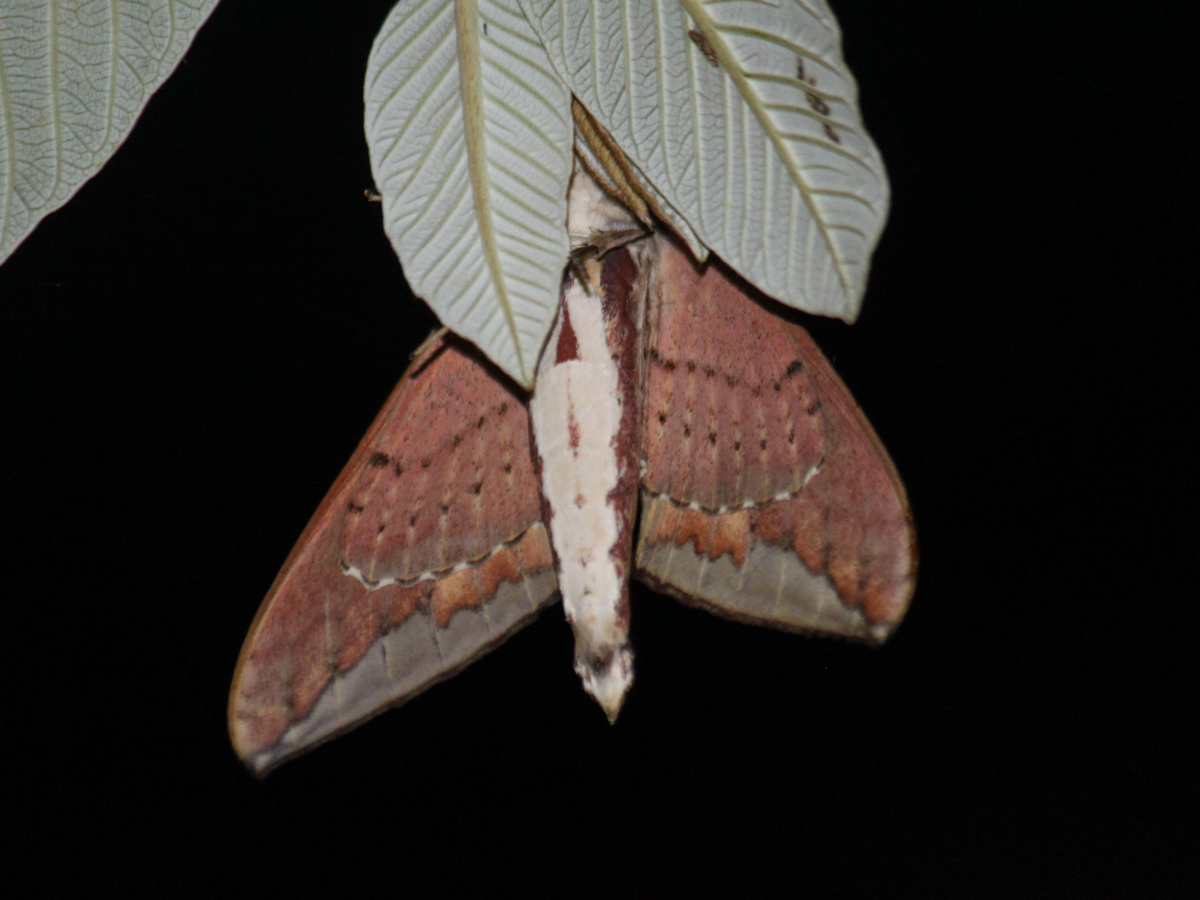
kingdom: Animalia
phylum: Arthropoda
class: Insecta
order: Lepidoptera
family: Sphingidae
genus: Elibia
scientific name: Elibia dolichus
